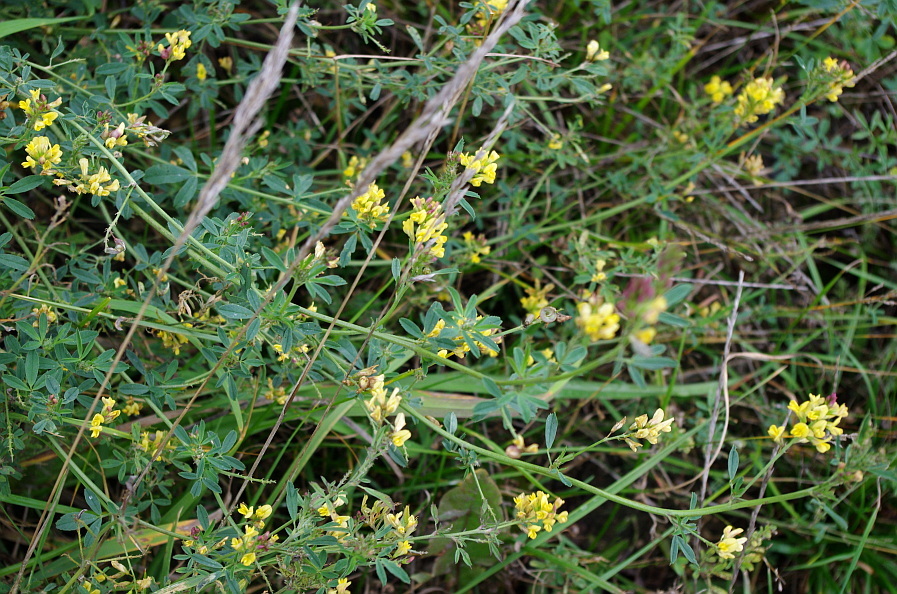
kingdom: Plantae
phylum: Tracheophyta
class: Magnoliopsida
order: Fabales
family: Fabaceae
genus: Medicago
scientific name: Medicago falcata
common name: Sickle medick
